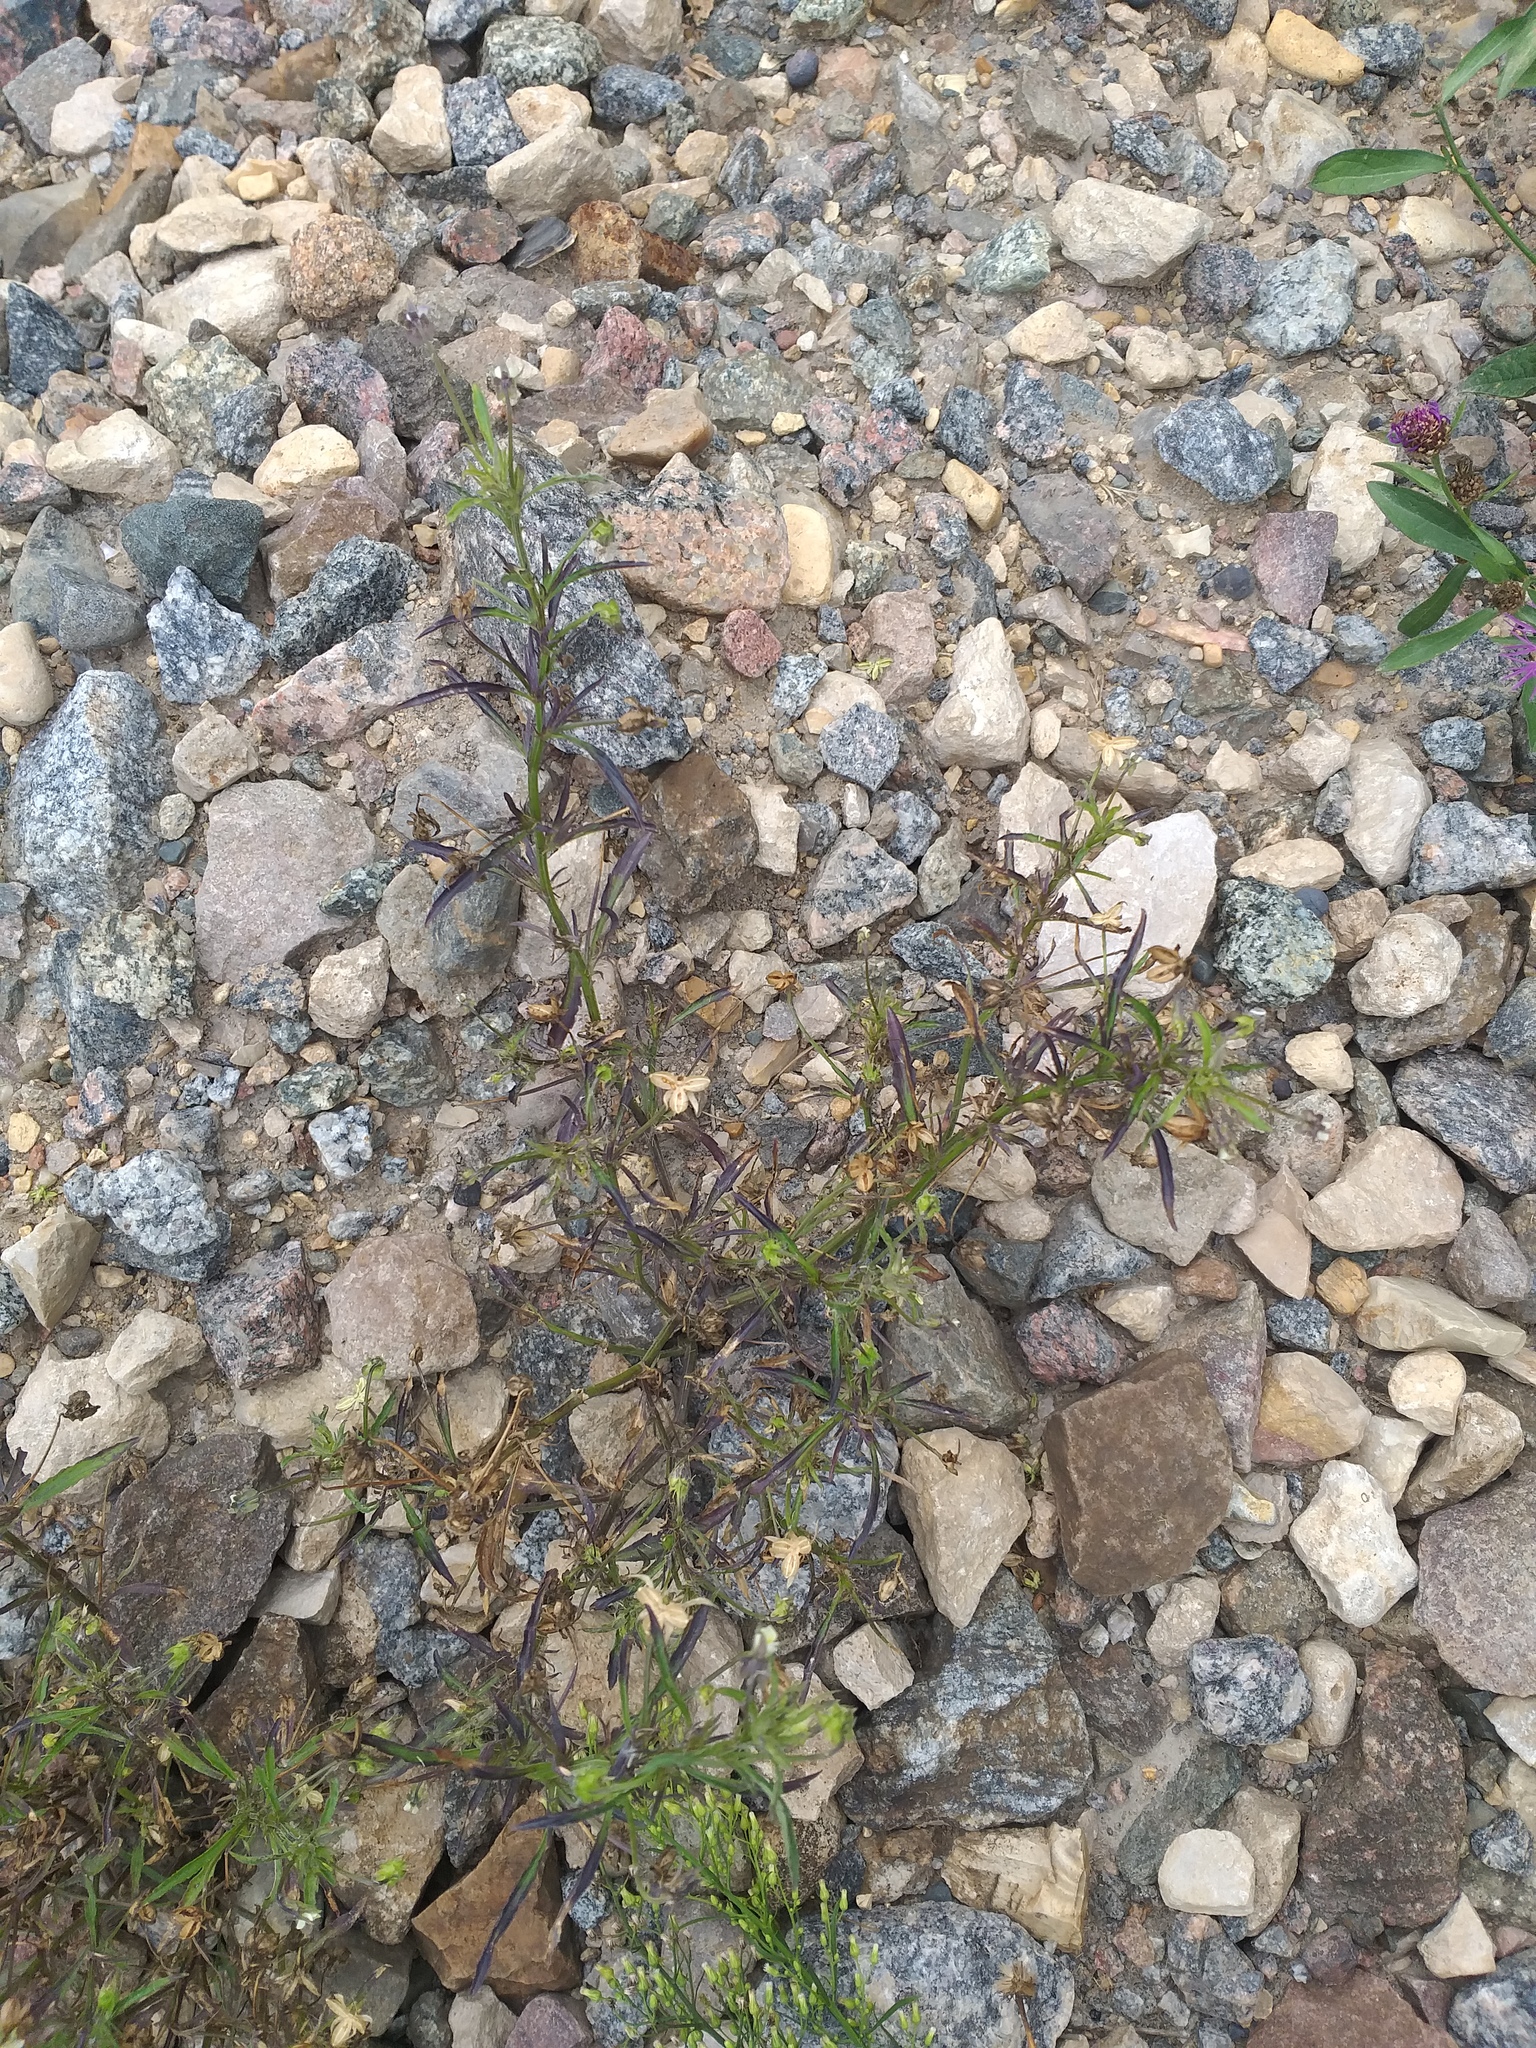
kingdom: Plantae
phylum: Tracheophyta
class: Magnoliopsida
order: Malpighiales
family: Violaceae
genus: Viola
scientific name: Viola arvensis
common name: Field pansy
